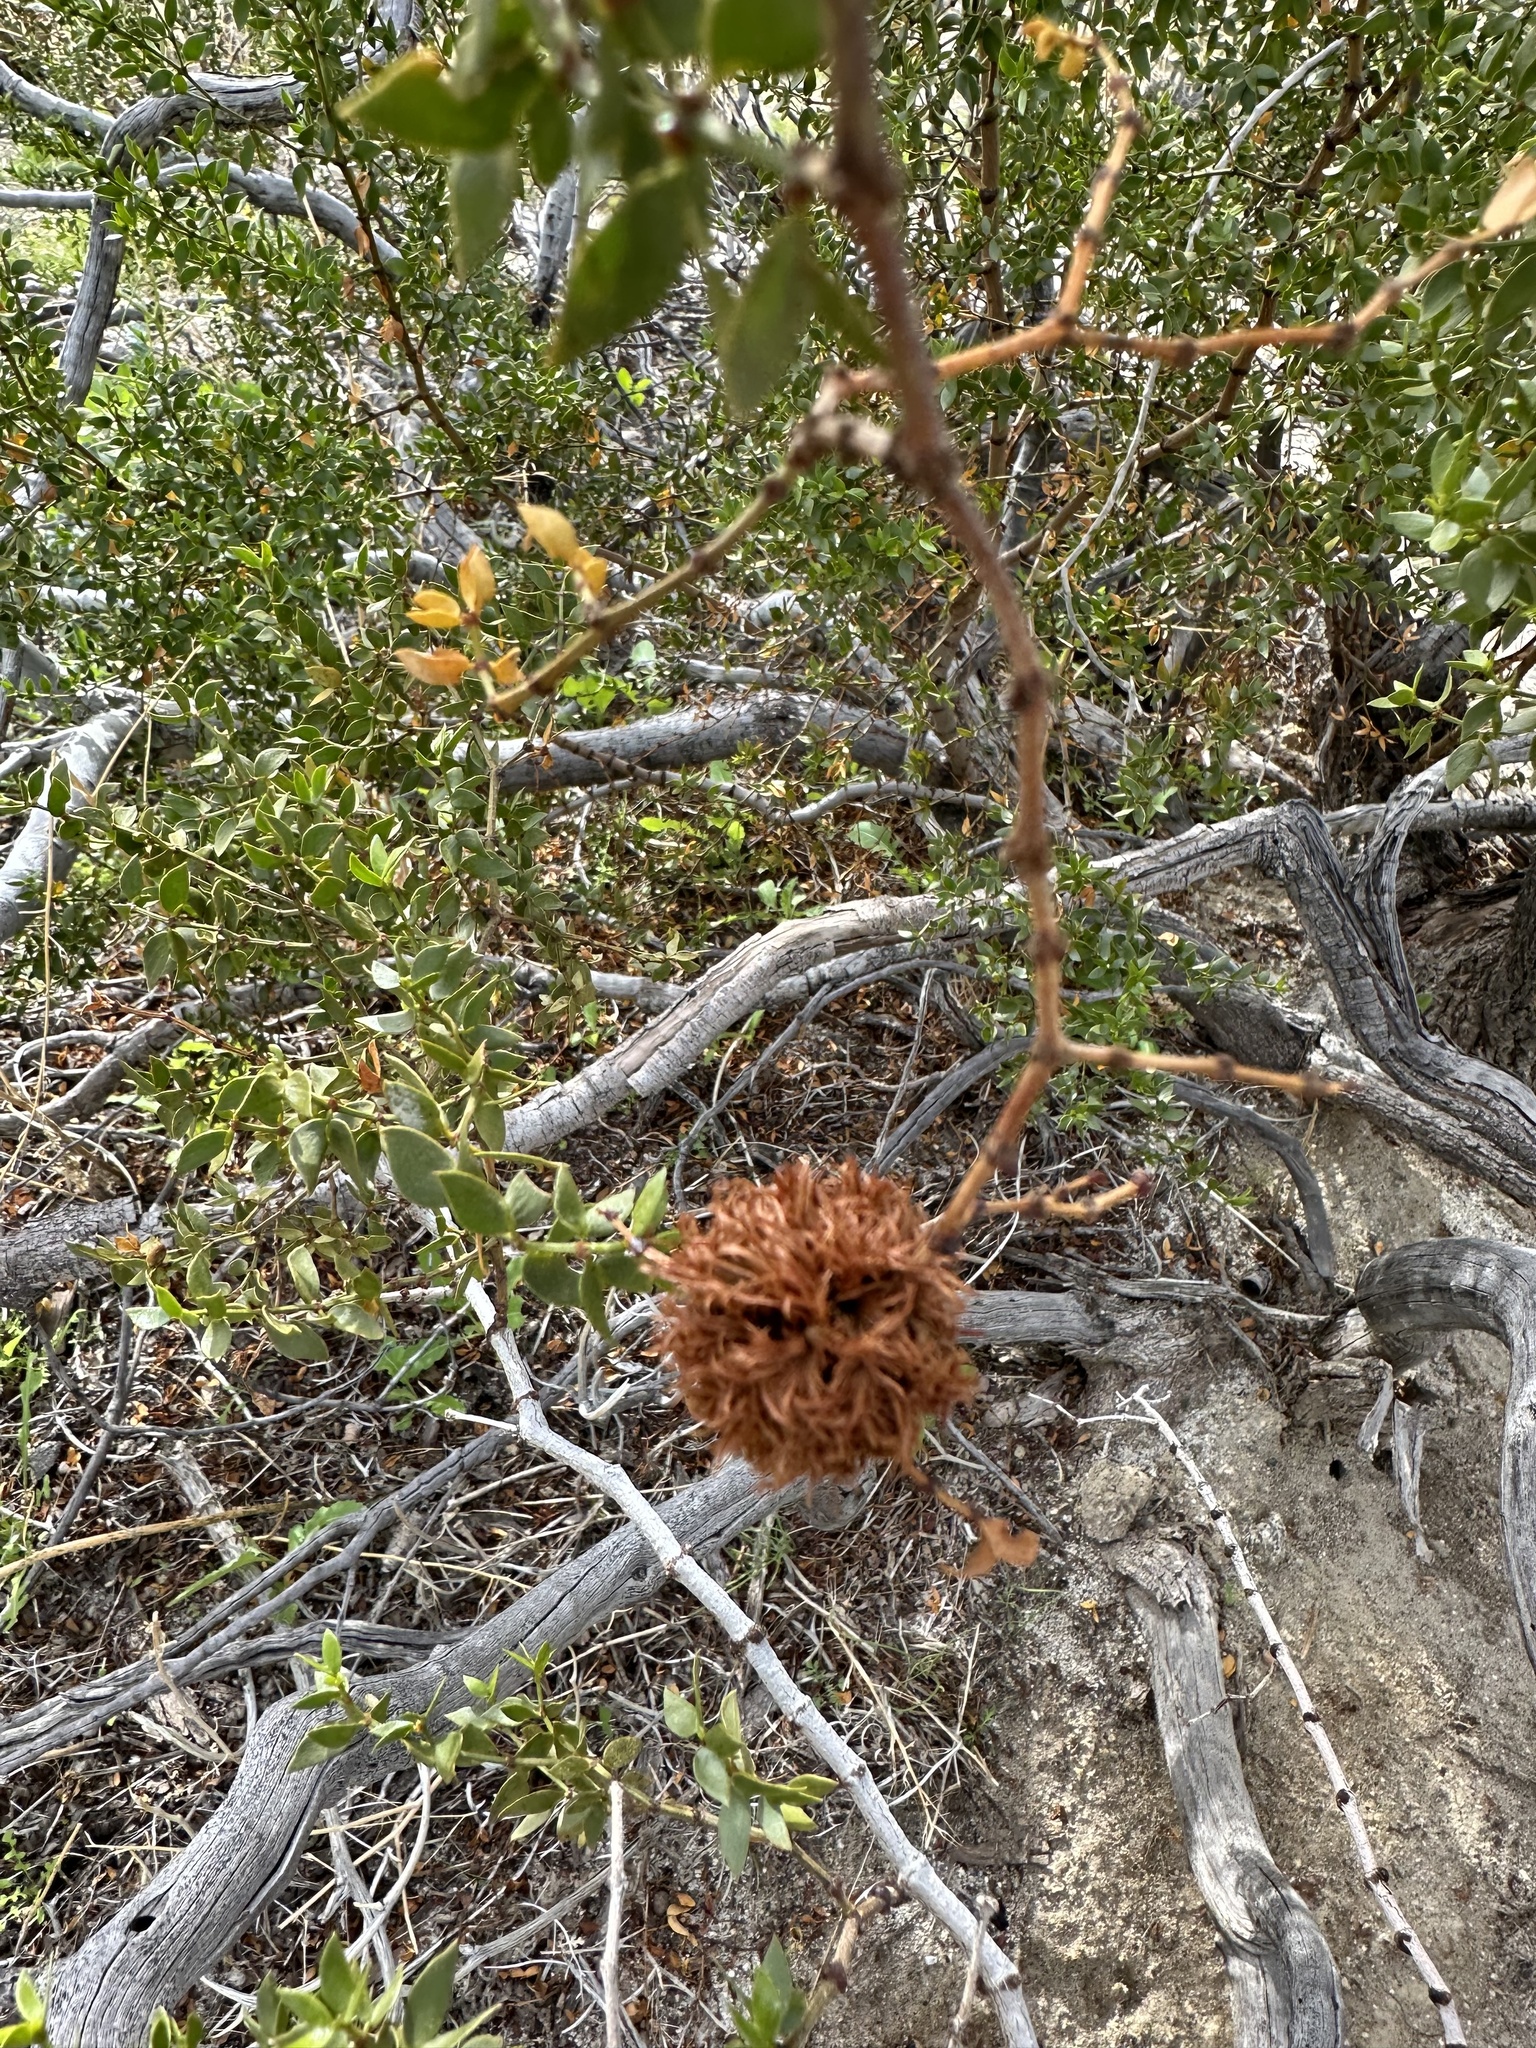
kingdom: Animalia
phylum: Arthropoda
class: Insecta
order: Diptera
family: Cecidomyiidae
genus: Asphondylia
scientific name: Asphondylia auripila
